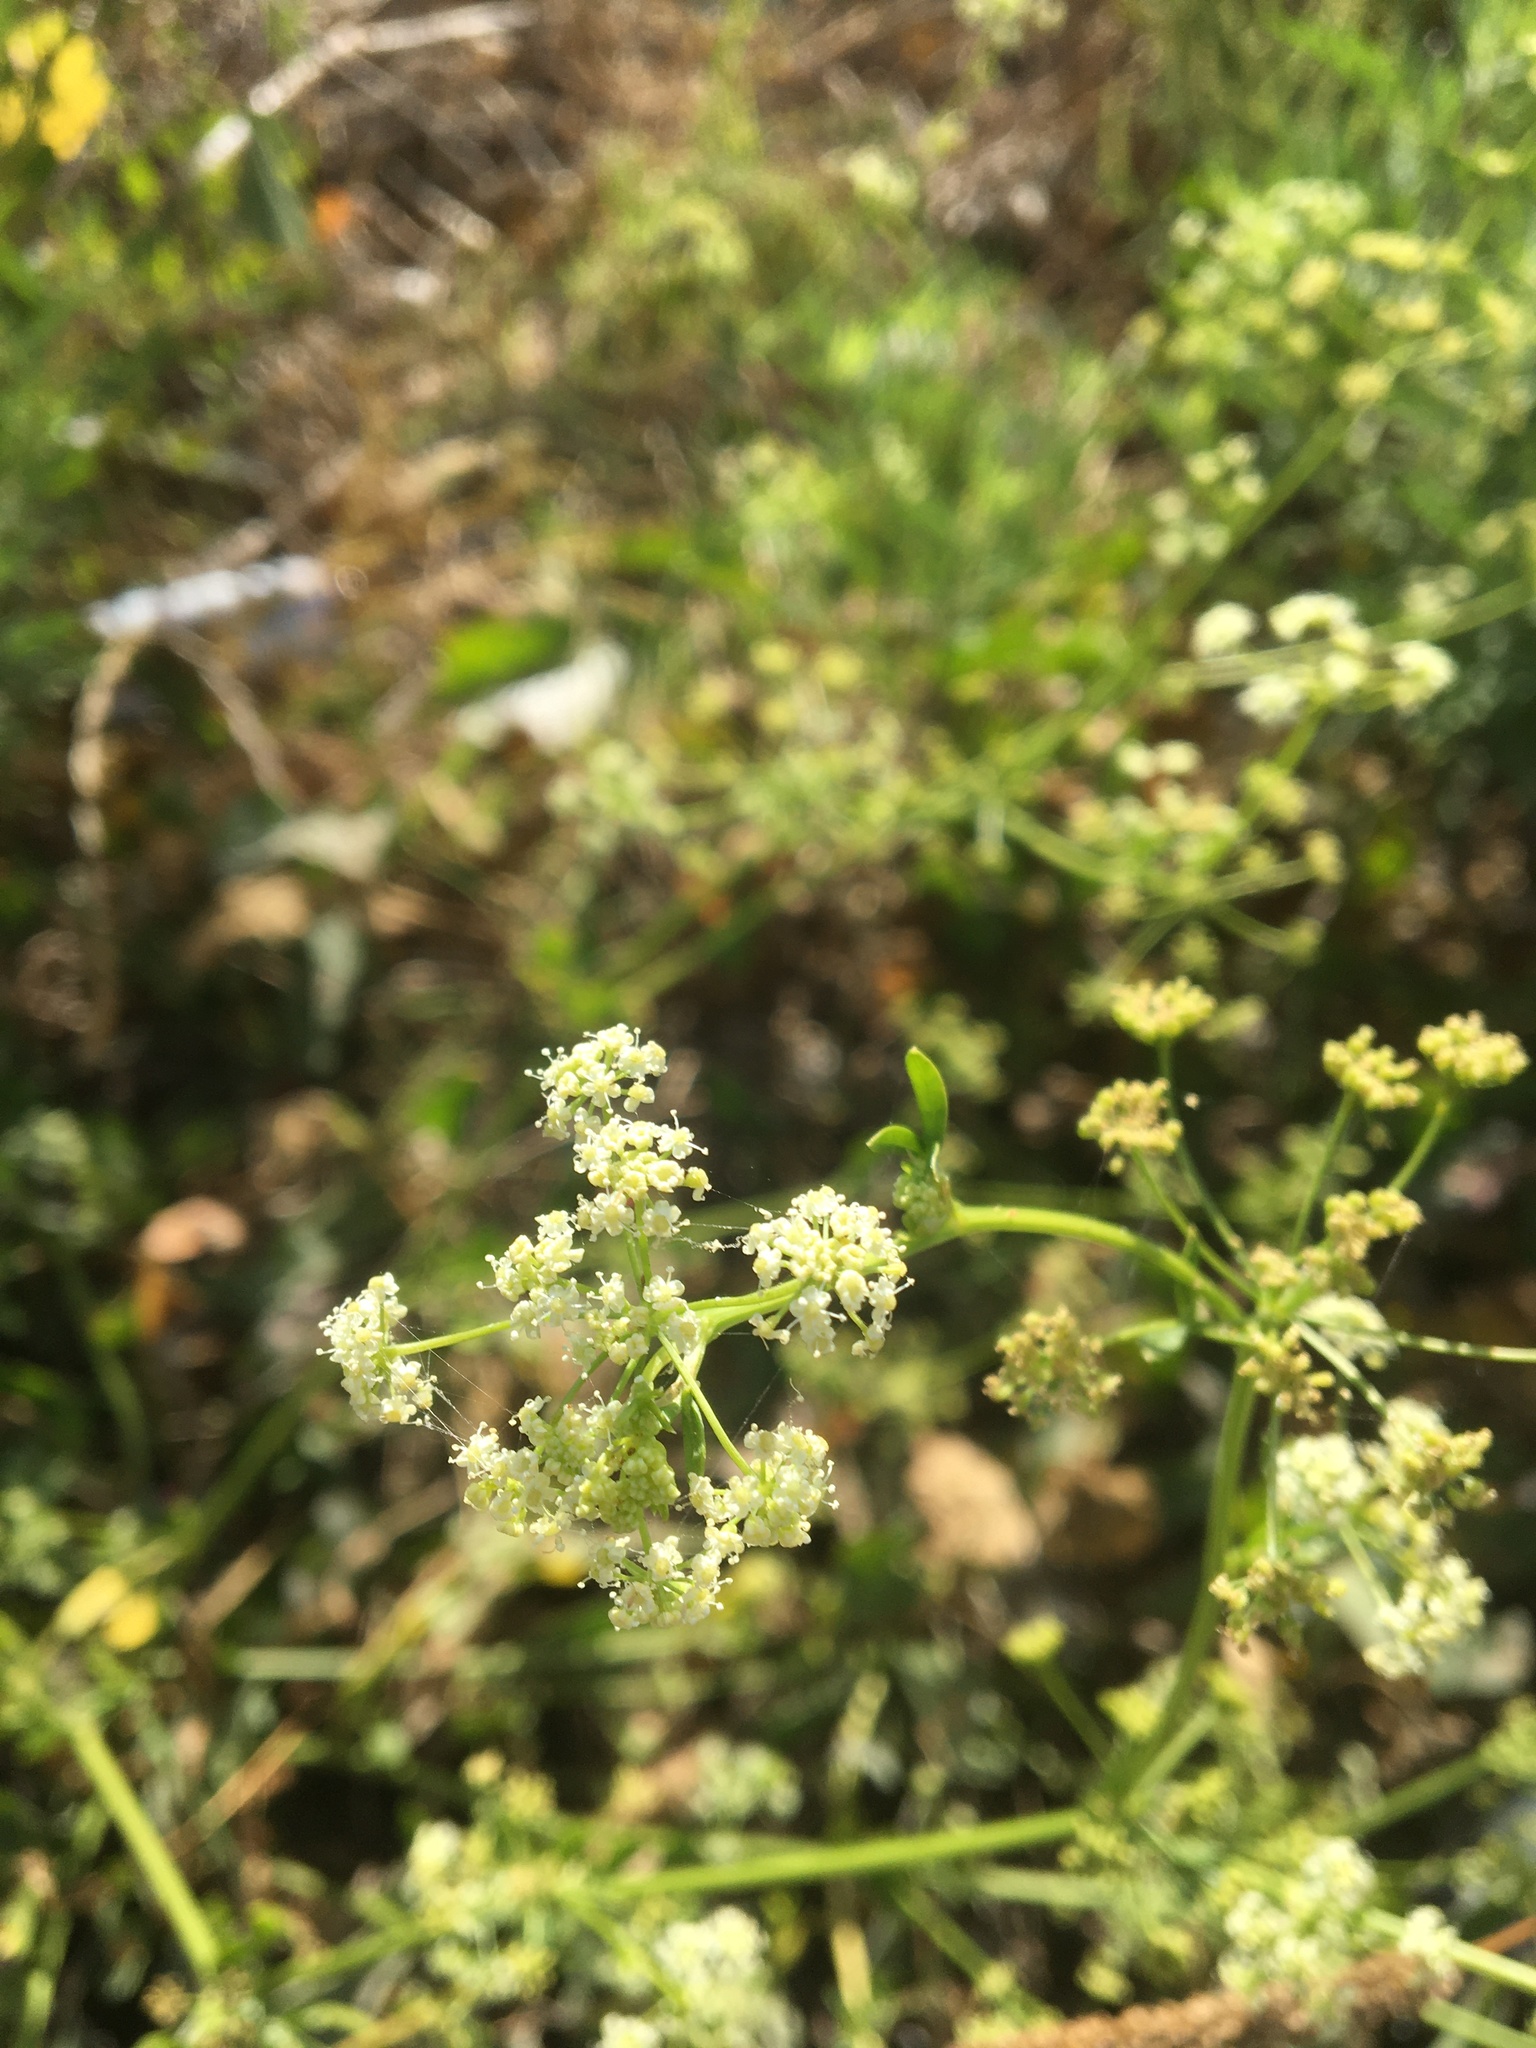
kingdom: Plantae
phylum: Tracheophyta
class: Magnoliopsida
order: Apiales
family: Apiaceae
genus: Apium
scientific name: Apium graveolens
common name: Wild celery
